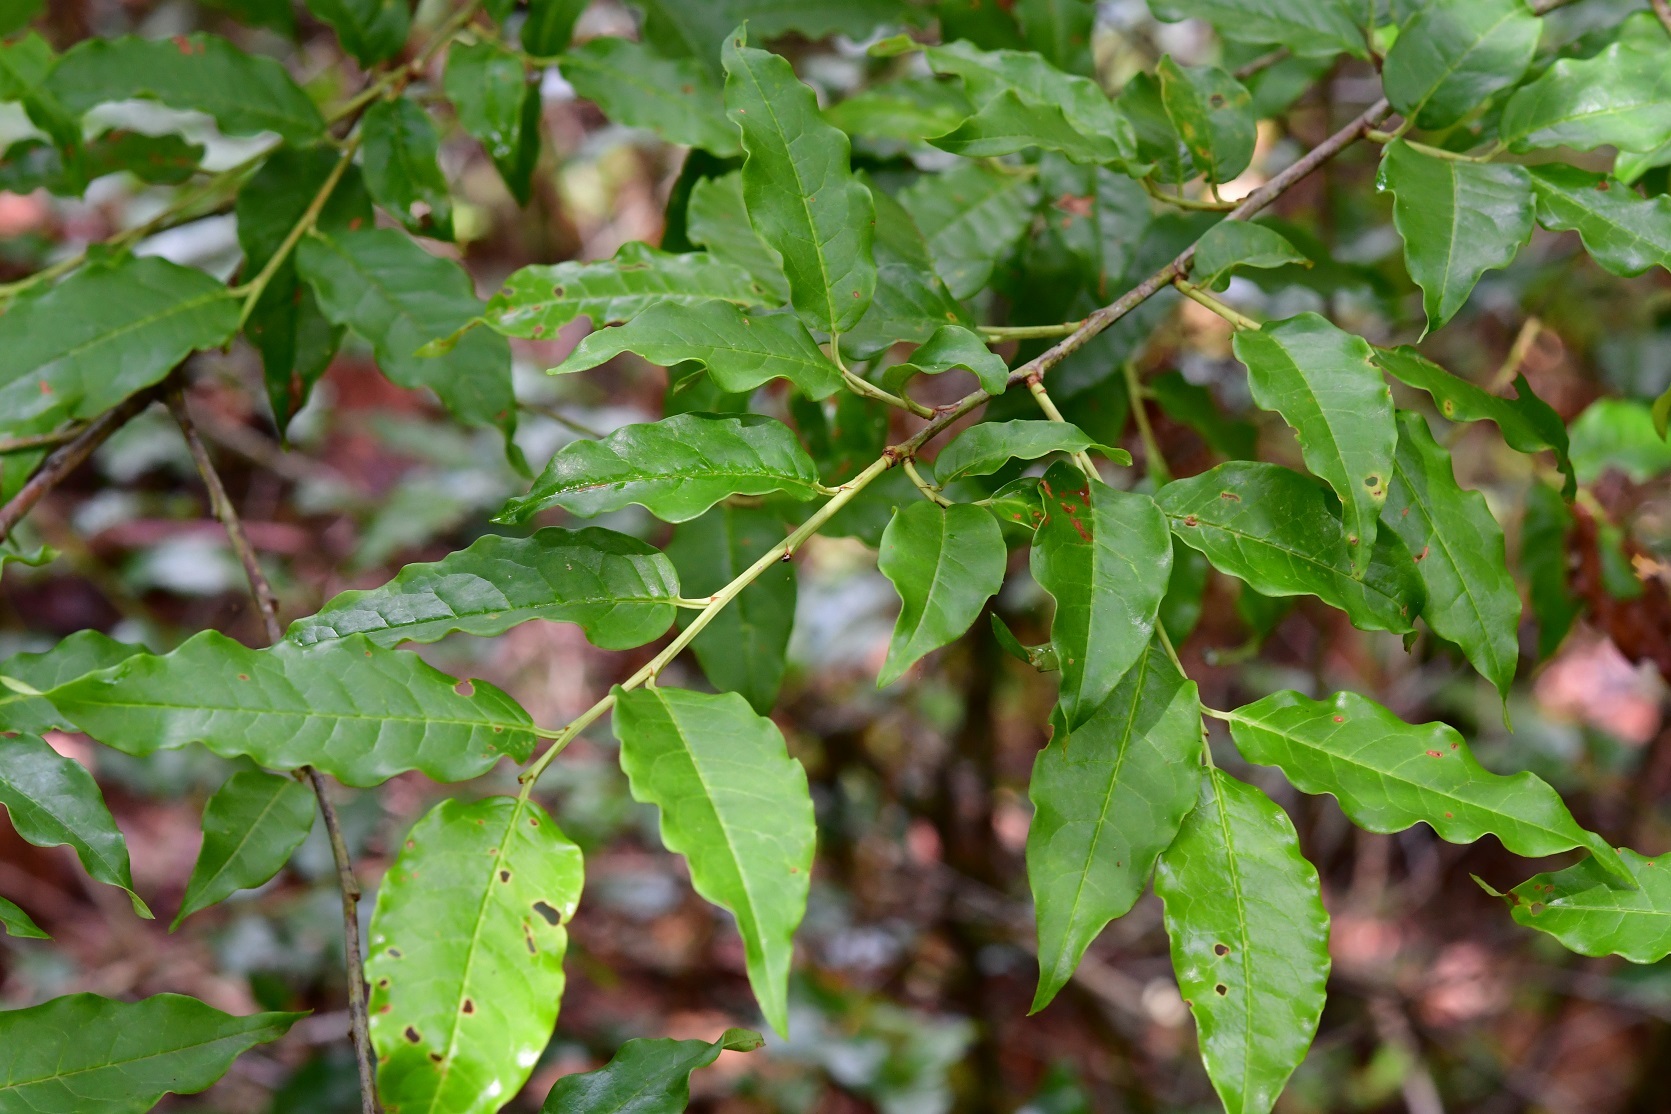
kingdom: Plantae
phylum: Tracheophyta
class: Magnoliopsida
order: Rosales
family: Rosaceae
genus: Prunus
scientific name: Prunus rhamnoides
